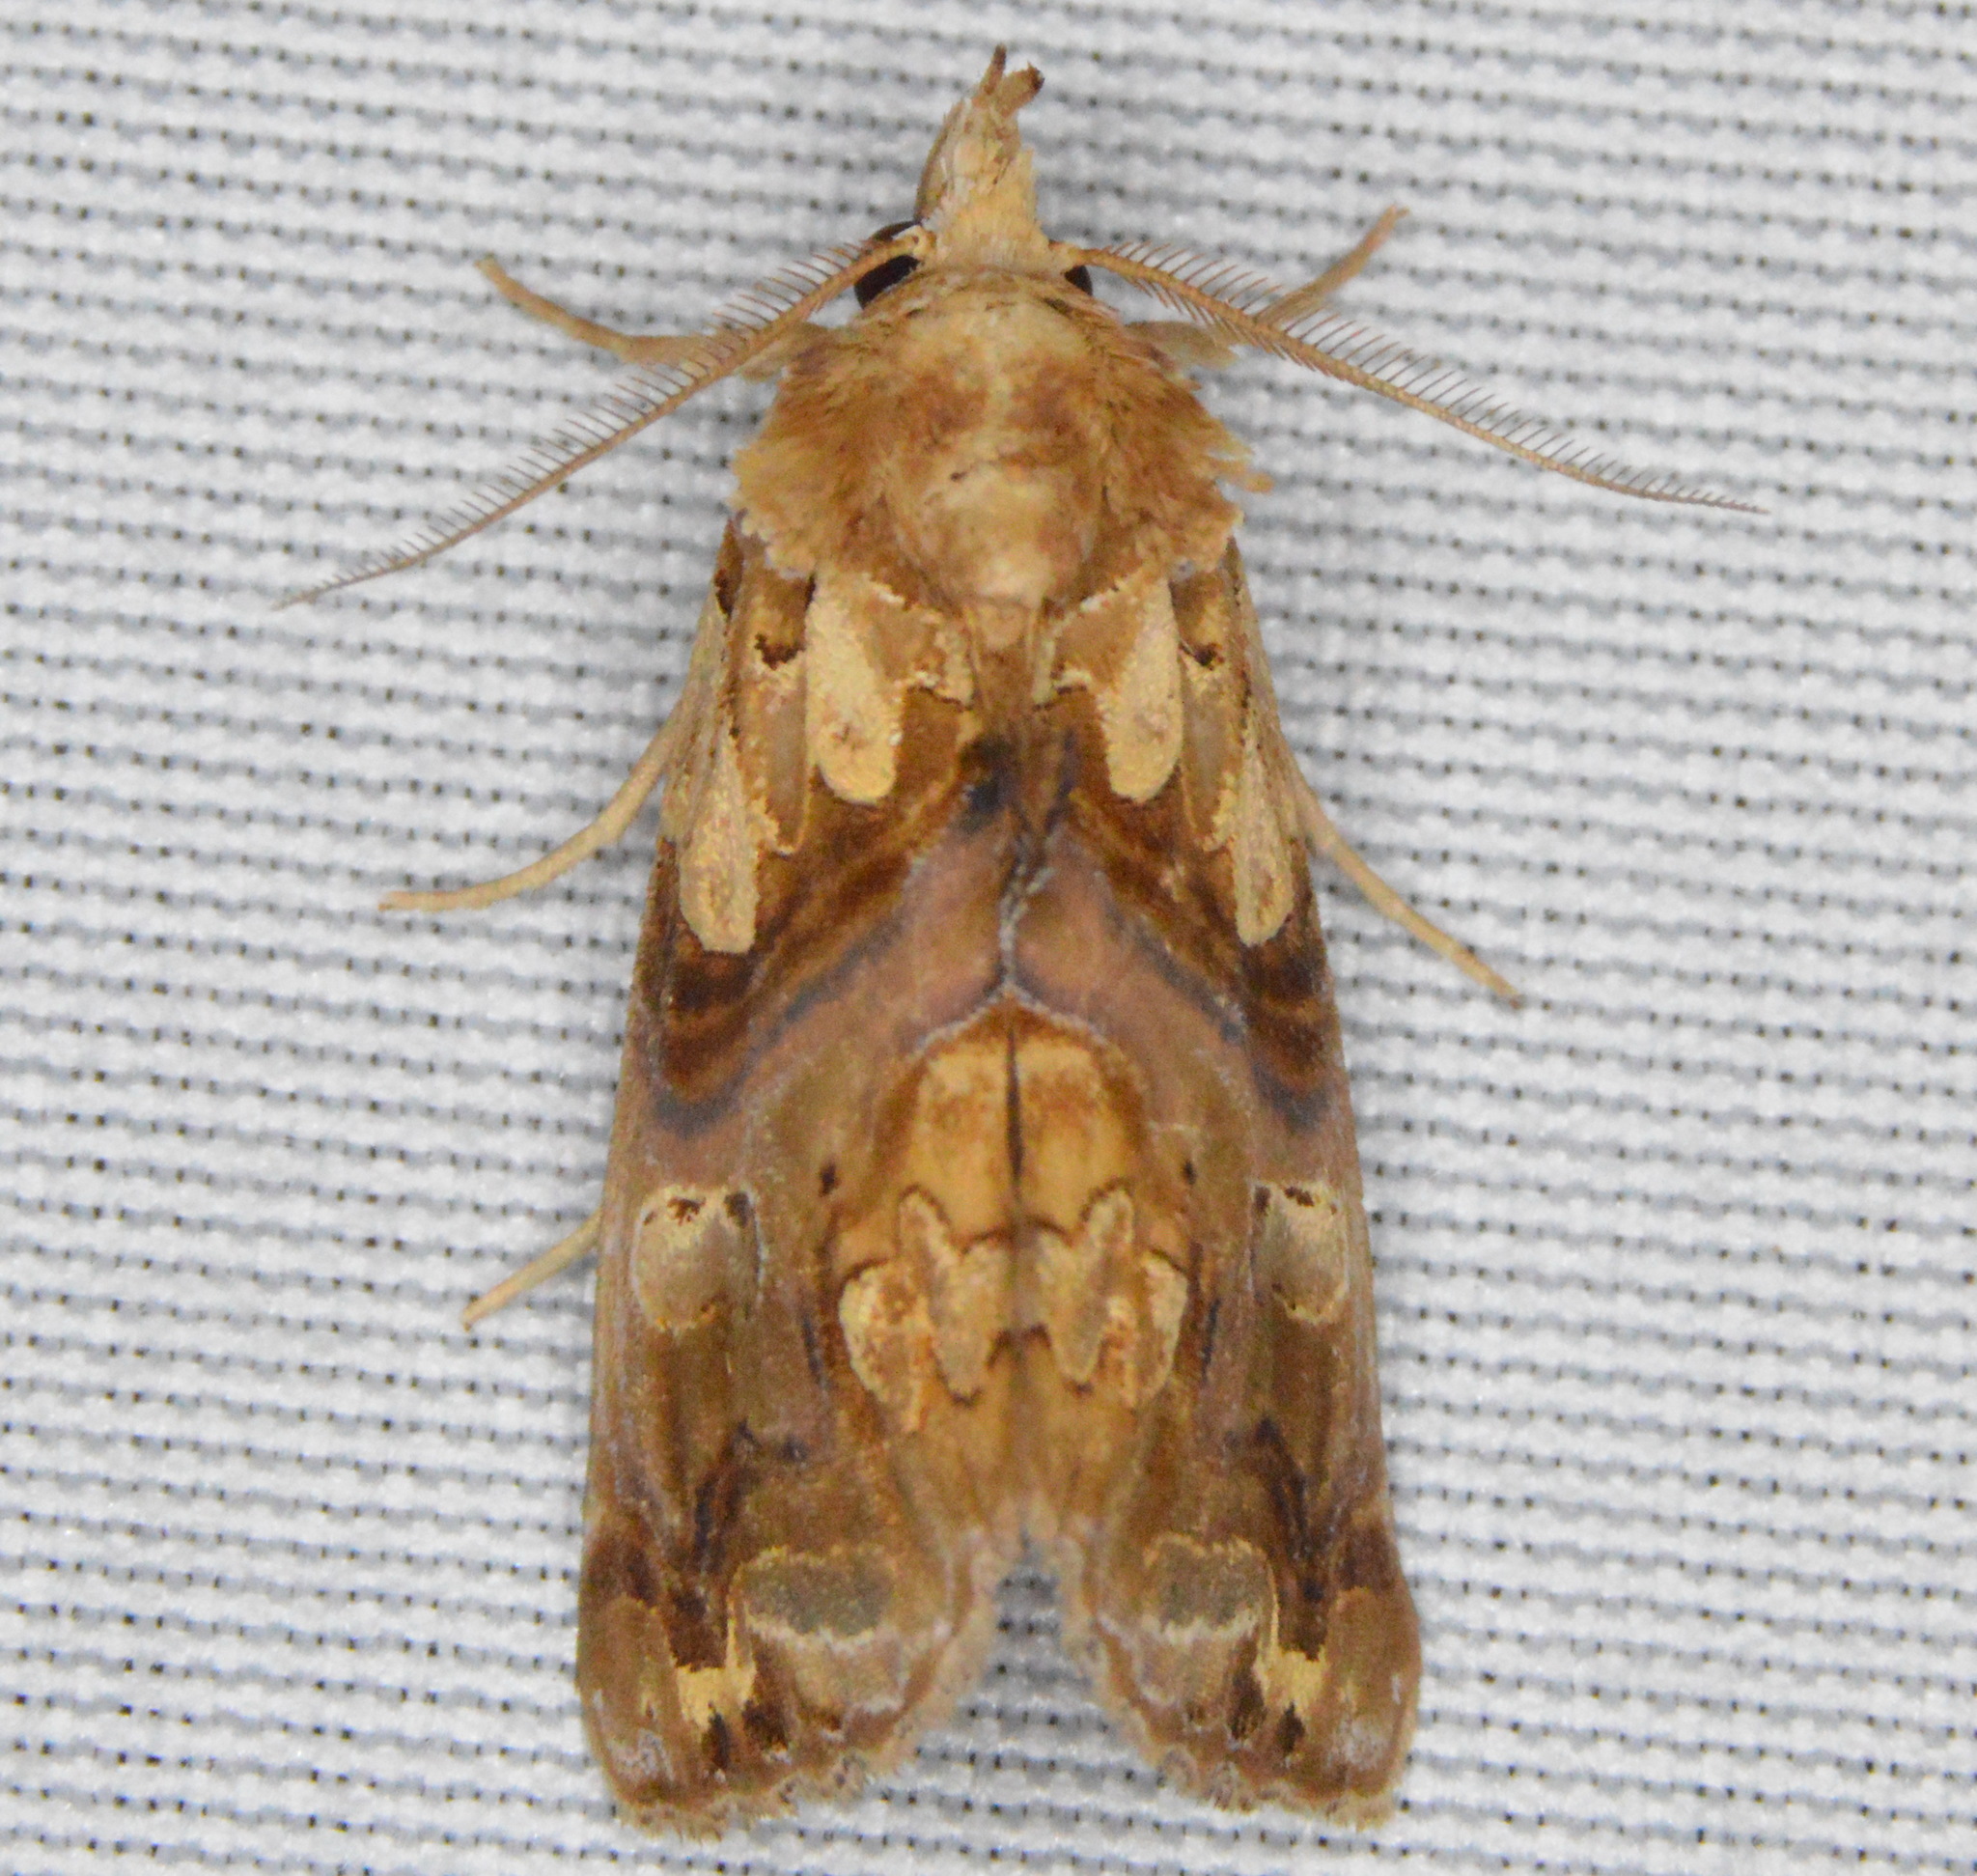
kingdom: Animalia
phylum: Arthropoda
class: Insecta
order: Lepidoptera
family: Erebidae
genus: Plusiodonta
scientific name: Plusiodonta compressipalpis
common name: Moonseed moth
